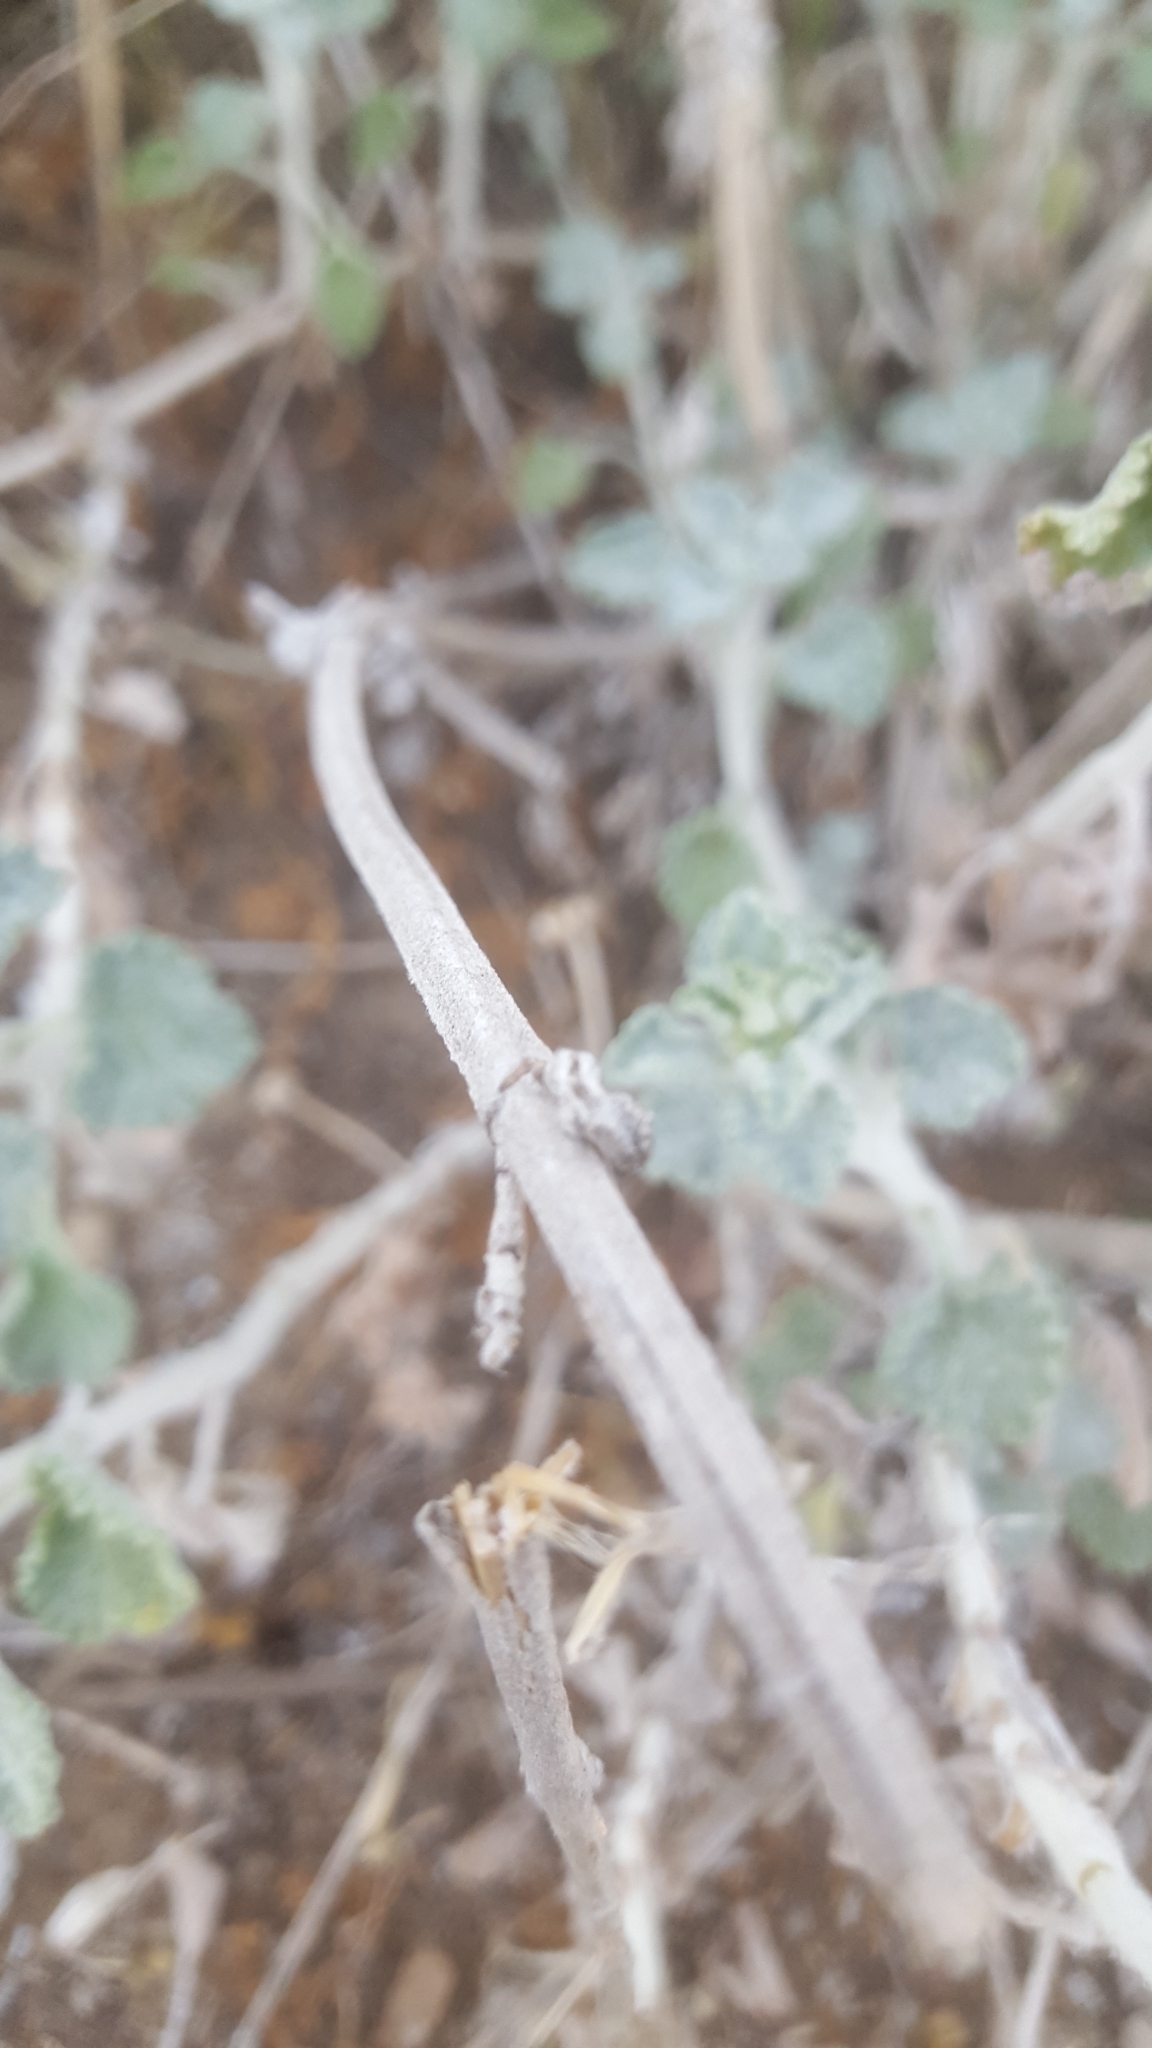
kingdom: Plantae
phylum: Tracheophyta
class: Magnoliopsida
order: Lamiales
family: Lamiaceae
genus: Marrubium
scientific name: Marrubium vulgare
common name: Horehound
